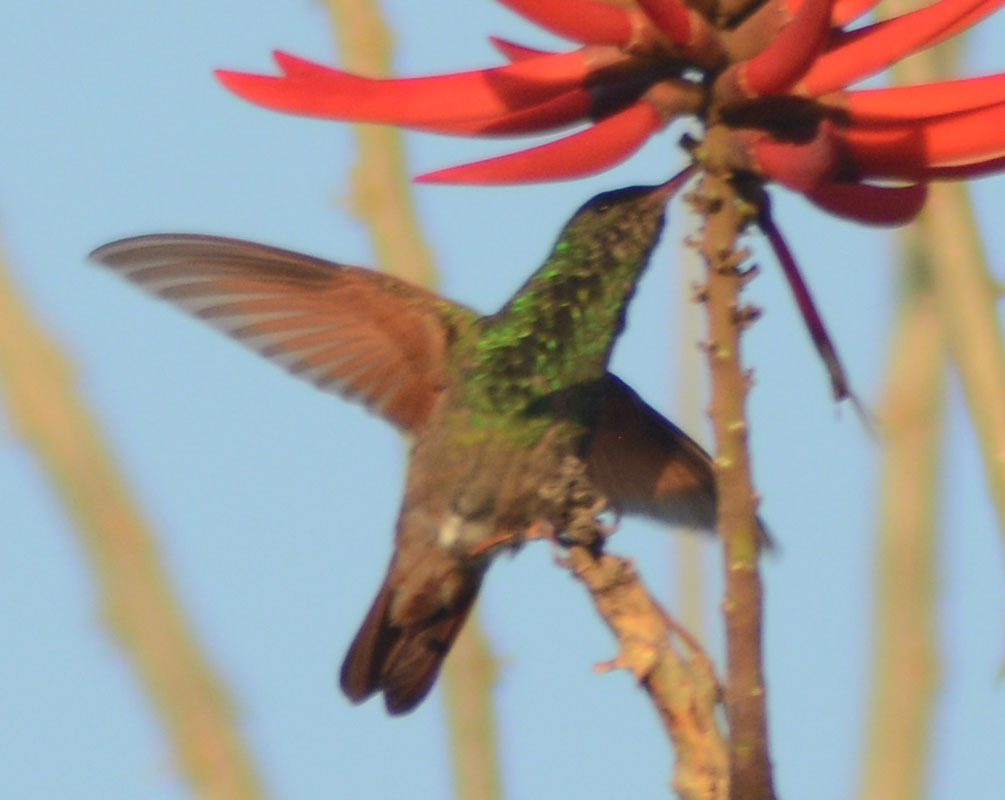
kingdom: Animalia
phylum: Chordata
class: Aves
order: Apodiformes
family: Trochilidae
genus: Saucerottia
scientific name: Saucerottia beryllina
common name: Berylline hummingbird
